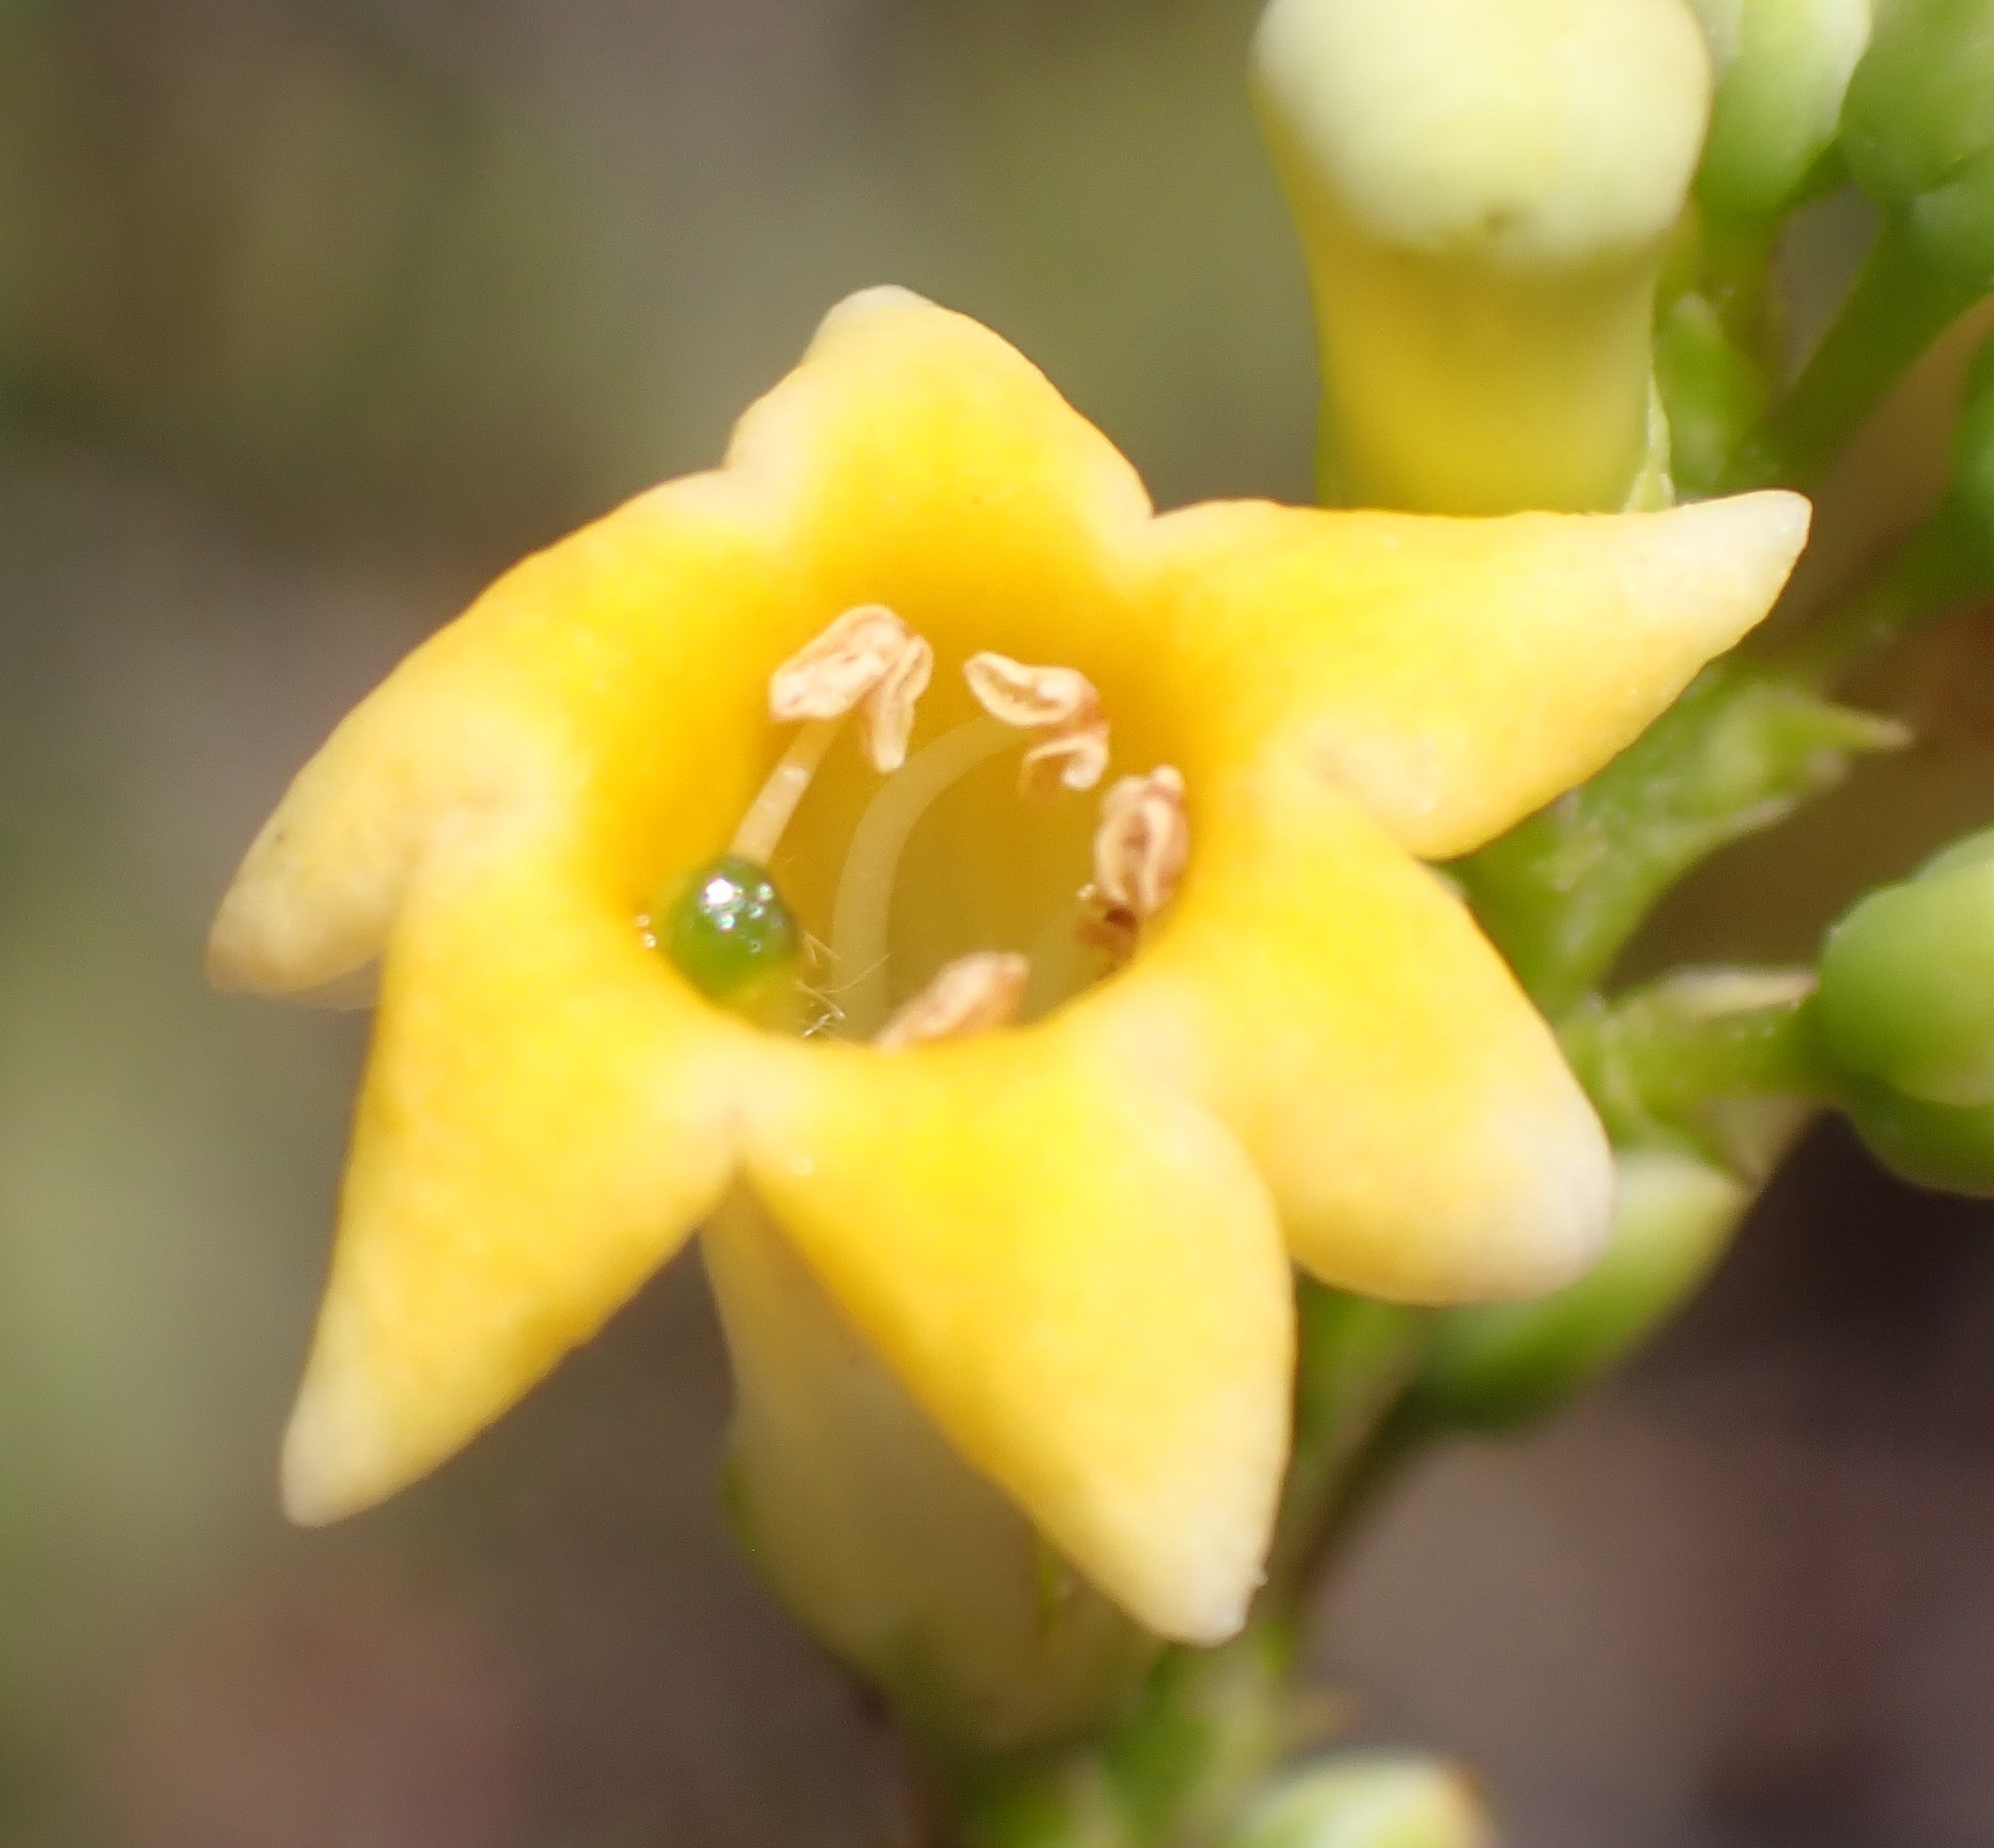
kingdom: Plantae
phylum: Tracheophyta
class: Magnoliopsida
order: Lamiales
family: Scrophulariaceae
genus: Freylinia
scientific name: Freylinia lanceolata
